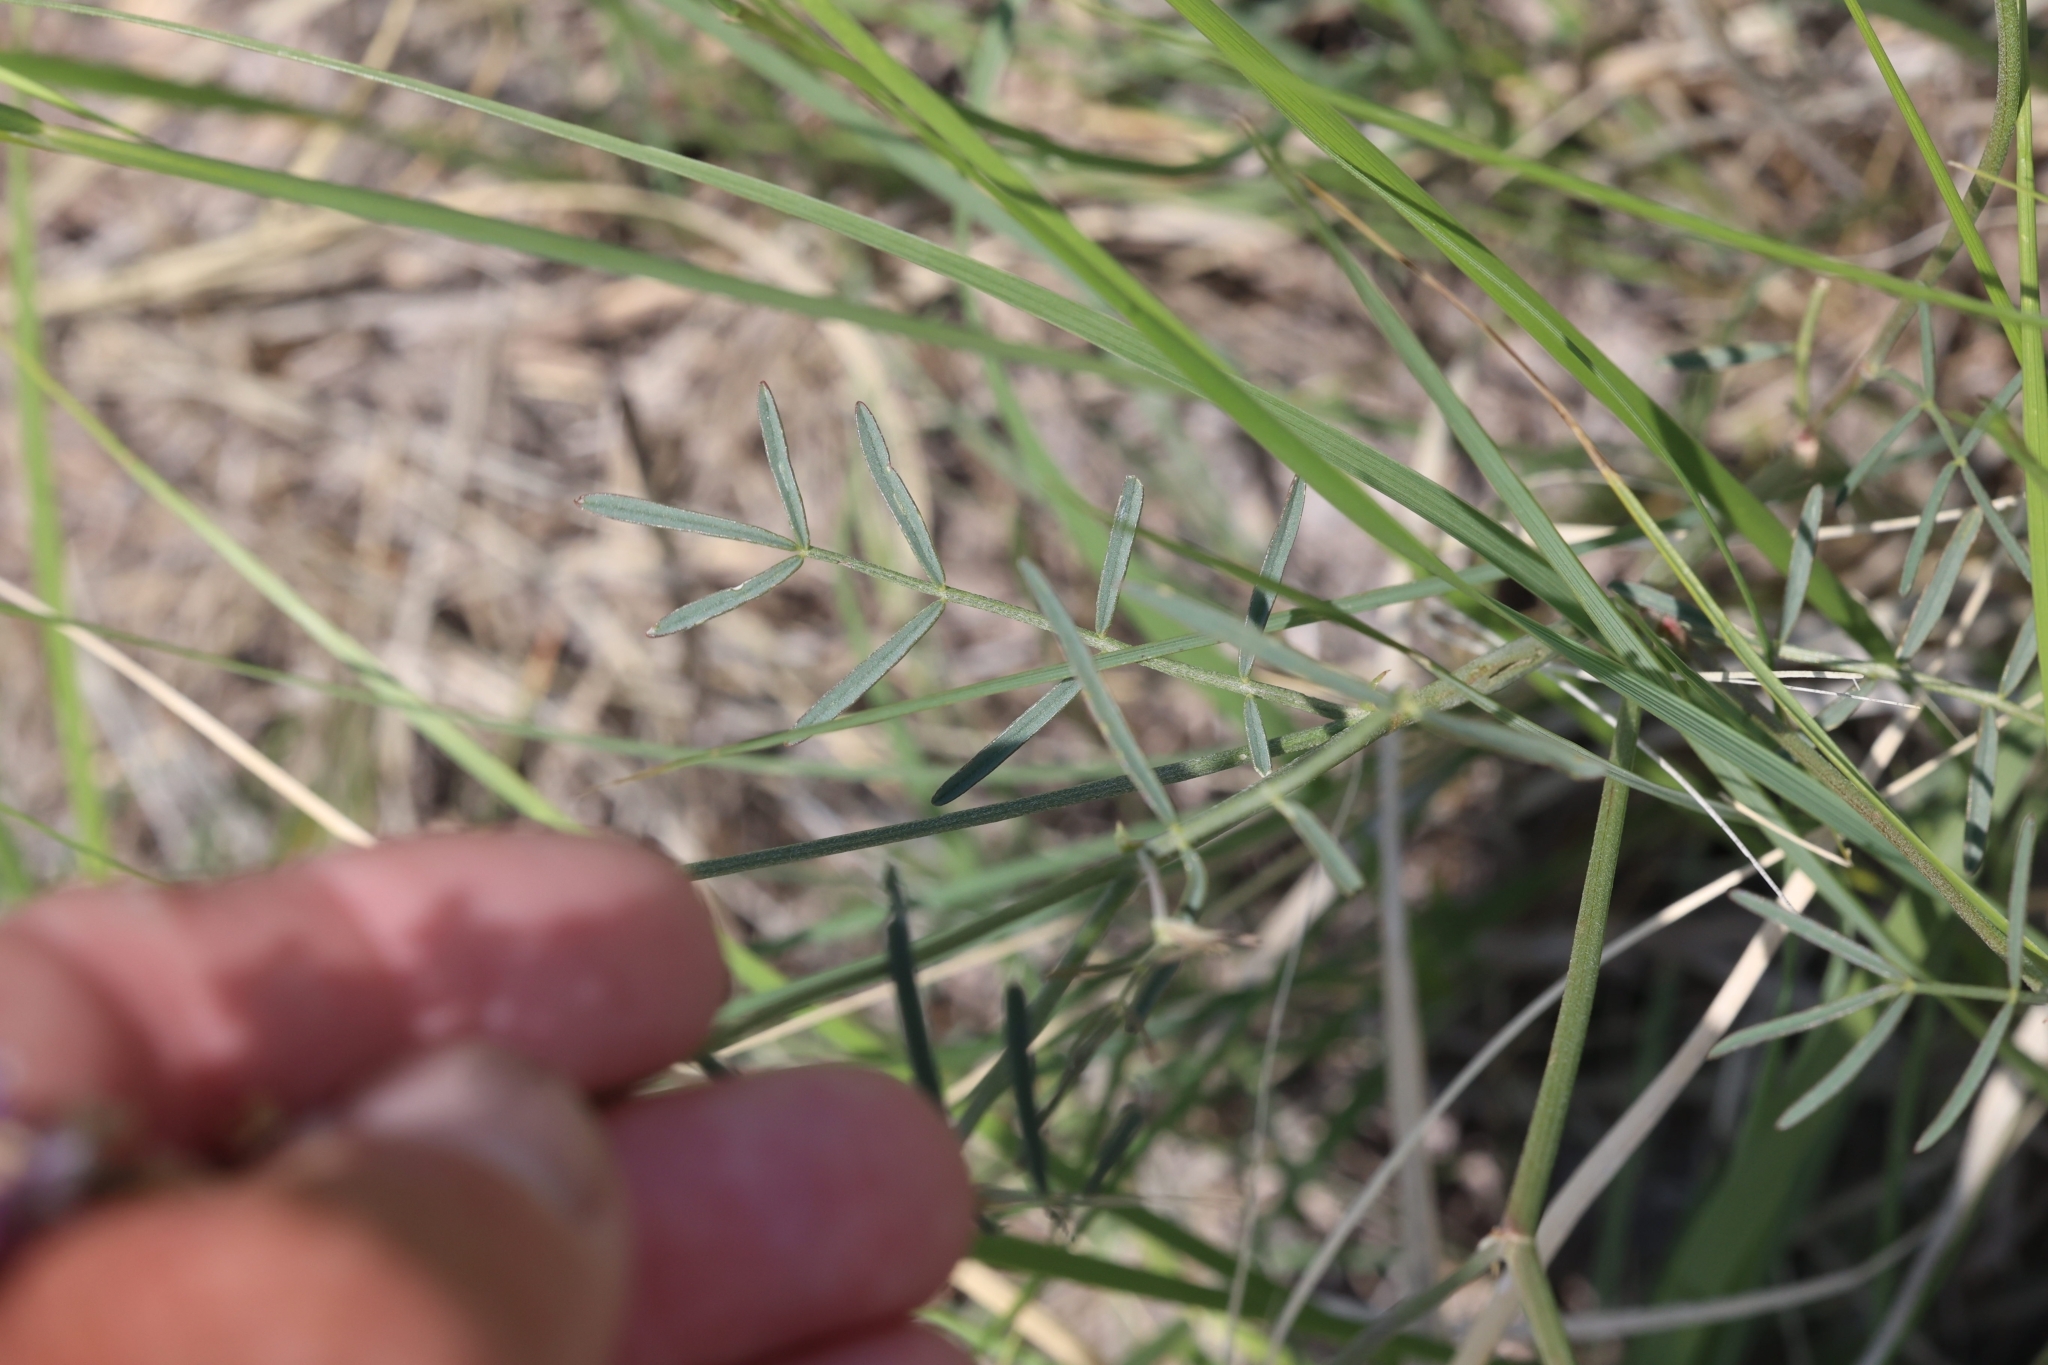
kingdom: Plantae
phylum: Tracheophyta
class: Magnoliopsida
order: Fabales
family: Fabaceae
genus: Astragalus
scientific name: Astragalus gracilis
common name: Slender milk-vetch
